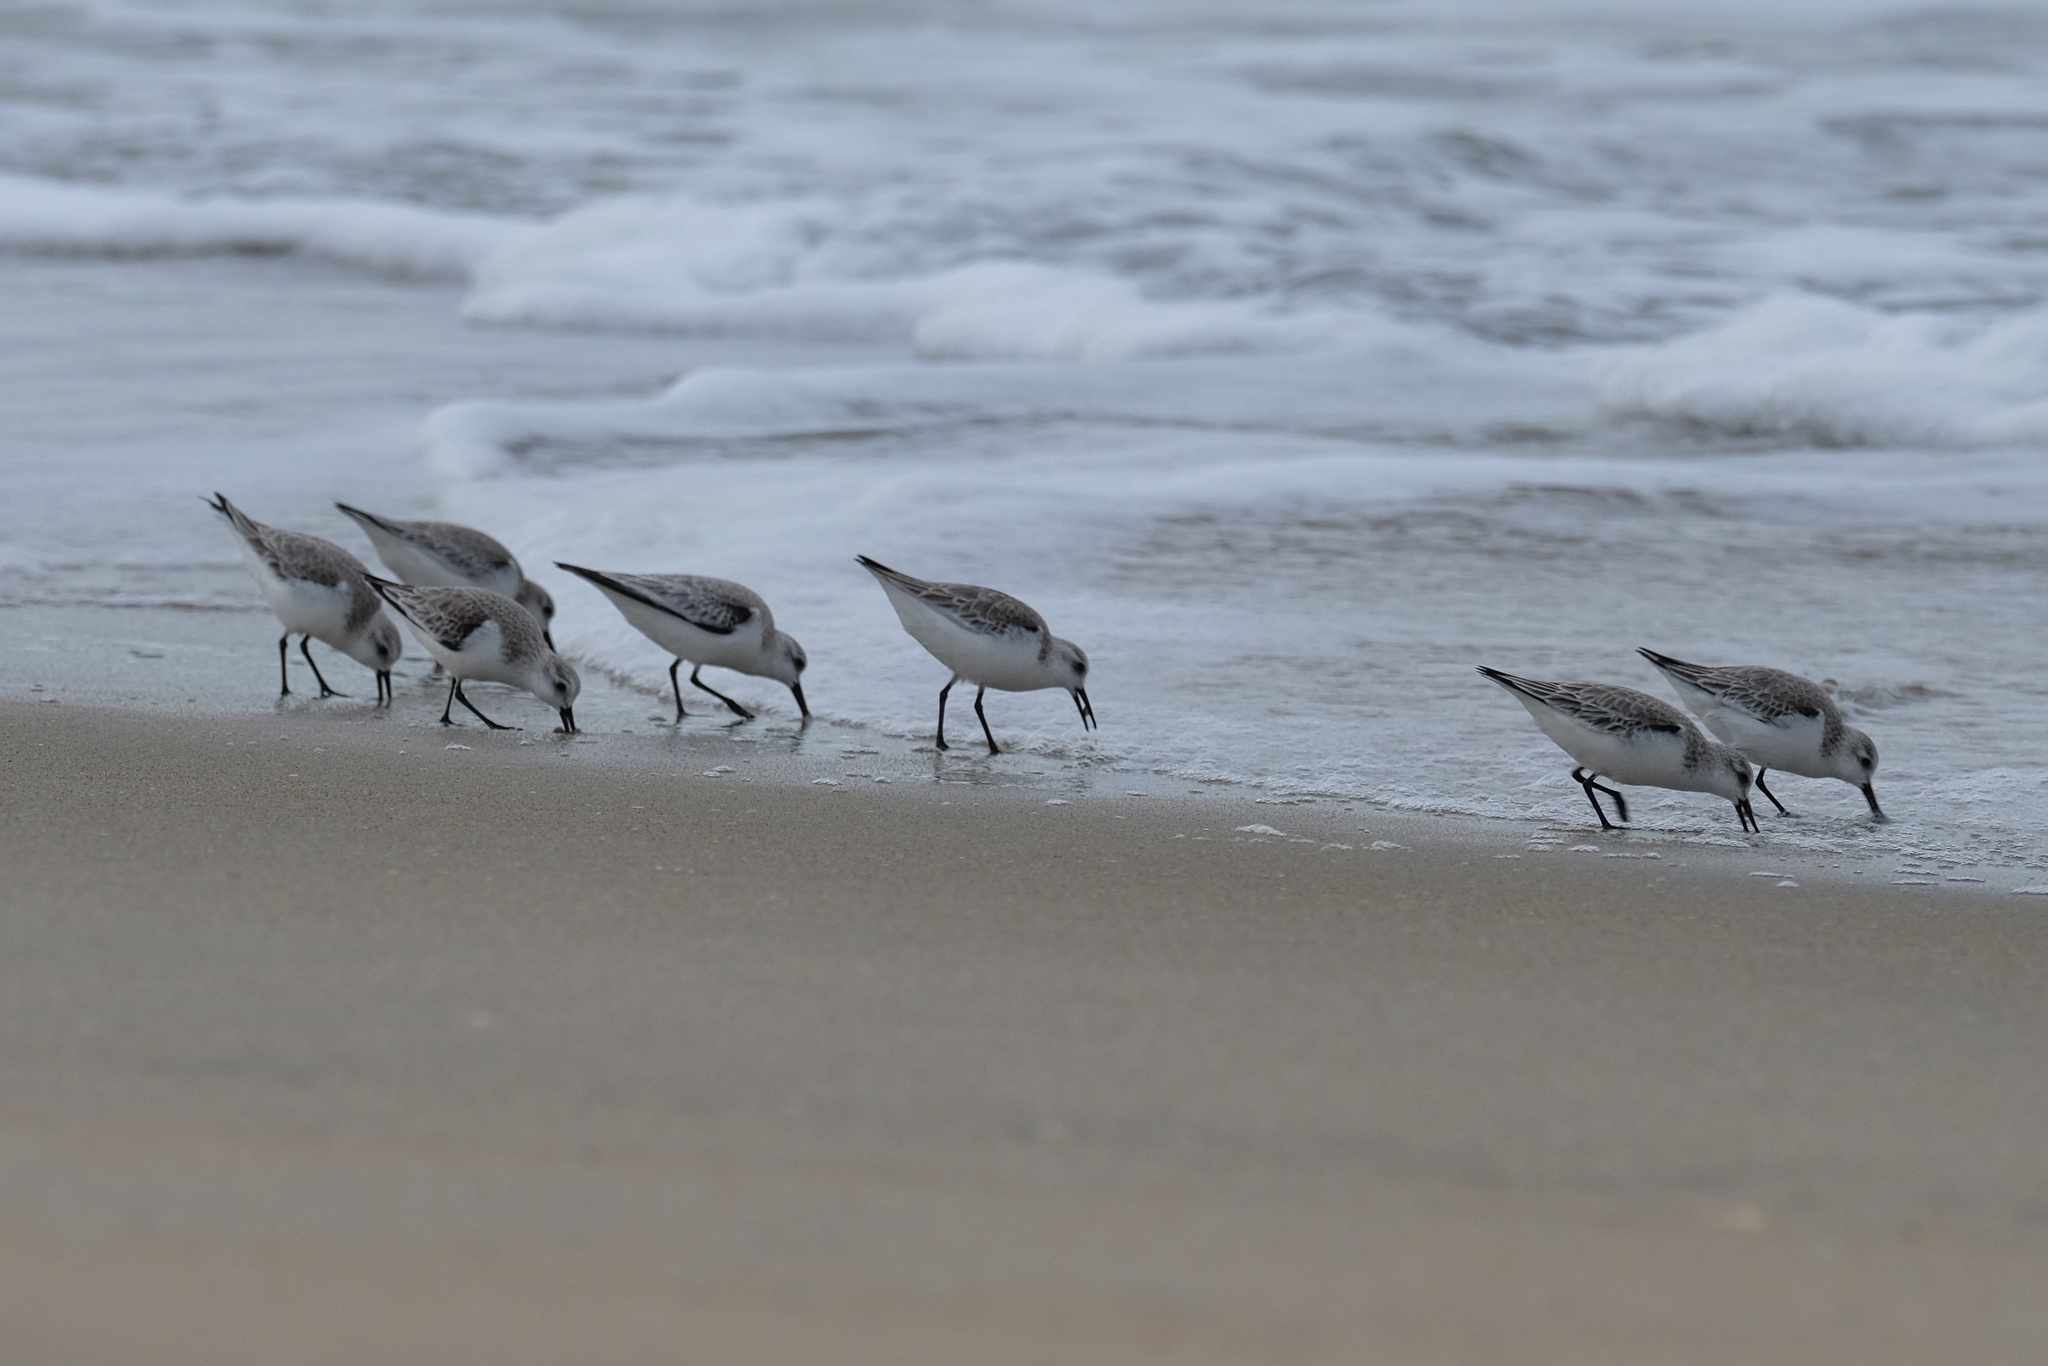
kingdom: Animalia
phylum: Chordata
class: Aves
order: Charadriiformes
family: Scolopacidae
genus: Calidris
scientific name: Calidris alba
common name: Sanderling
